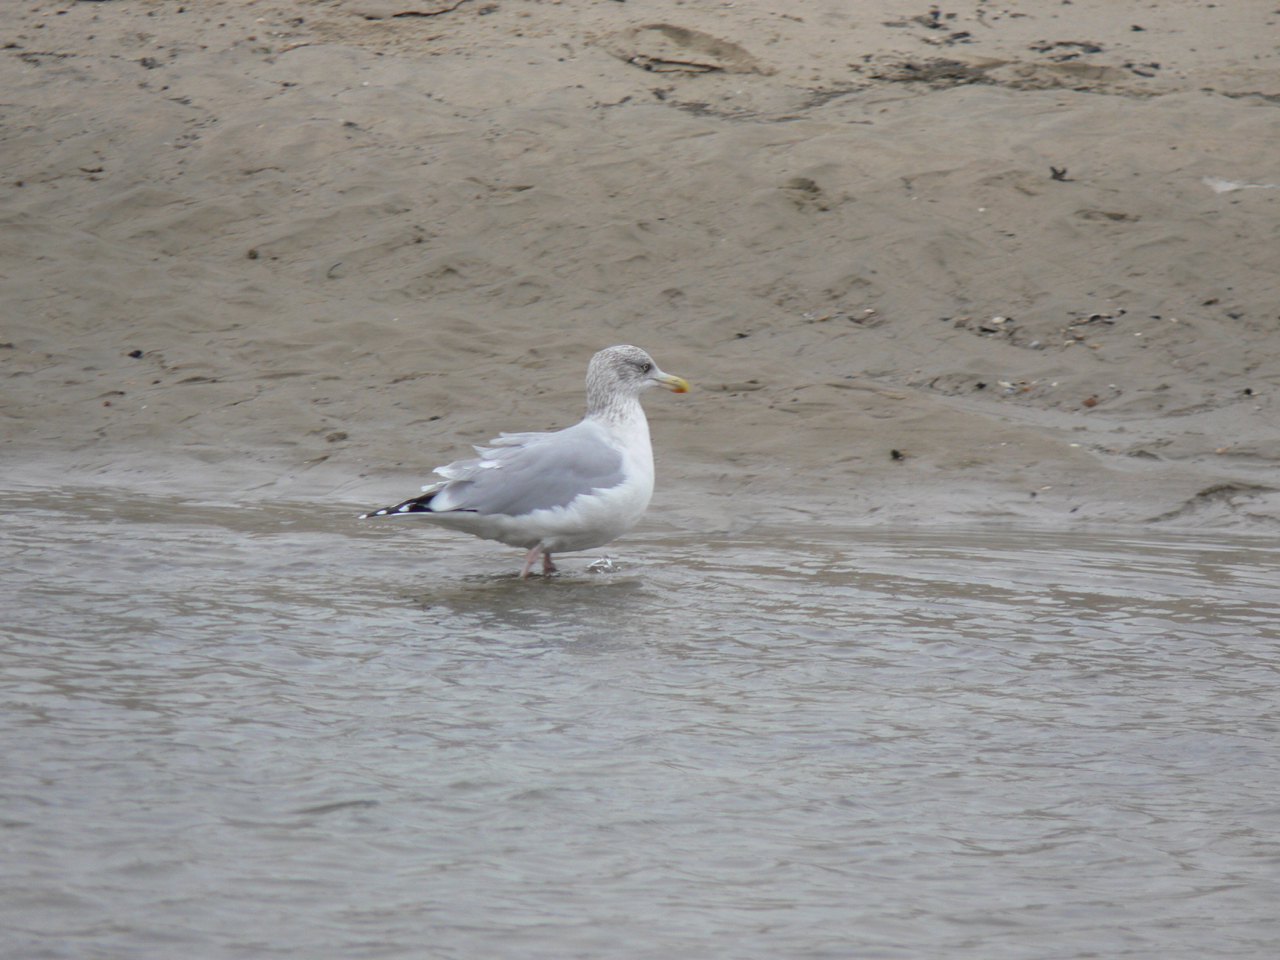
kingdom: Animalia
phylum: Chordata
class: Aves
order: Charadriiformes
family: Laridae
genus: Larus
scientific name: Larus argentatus
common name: Herring gull
